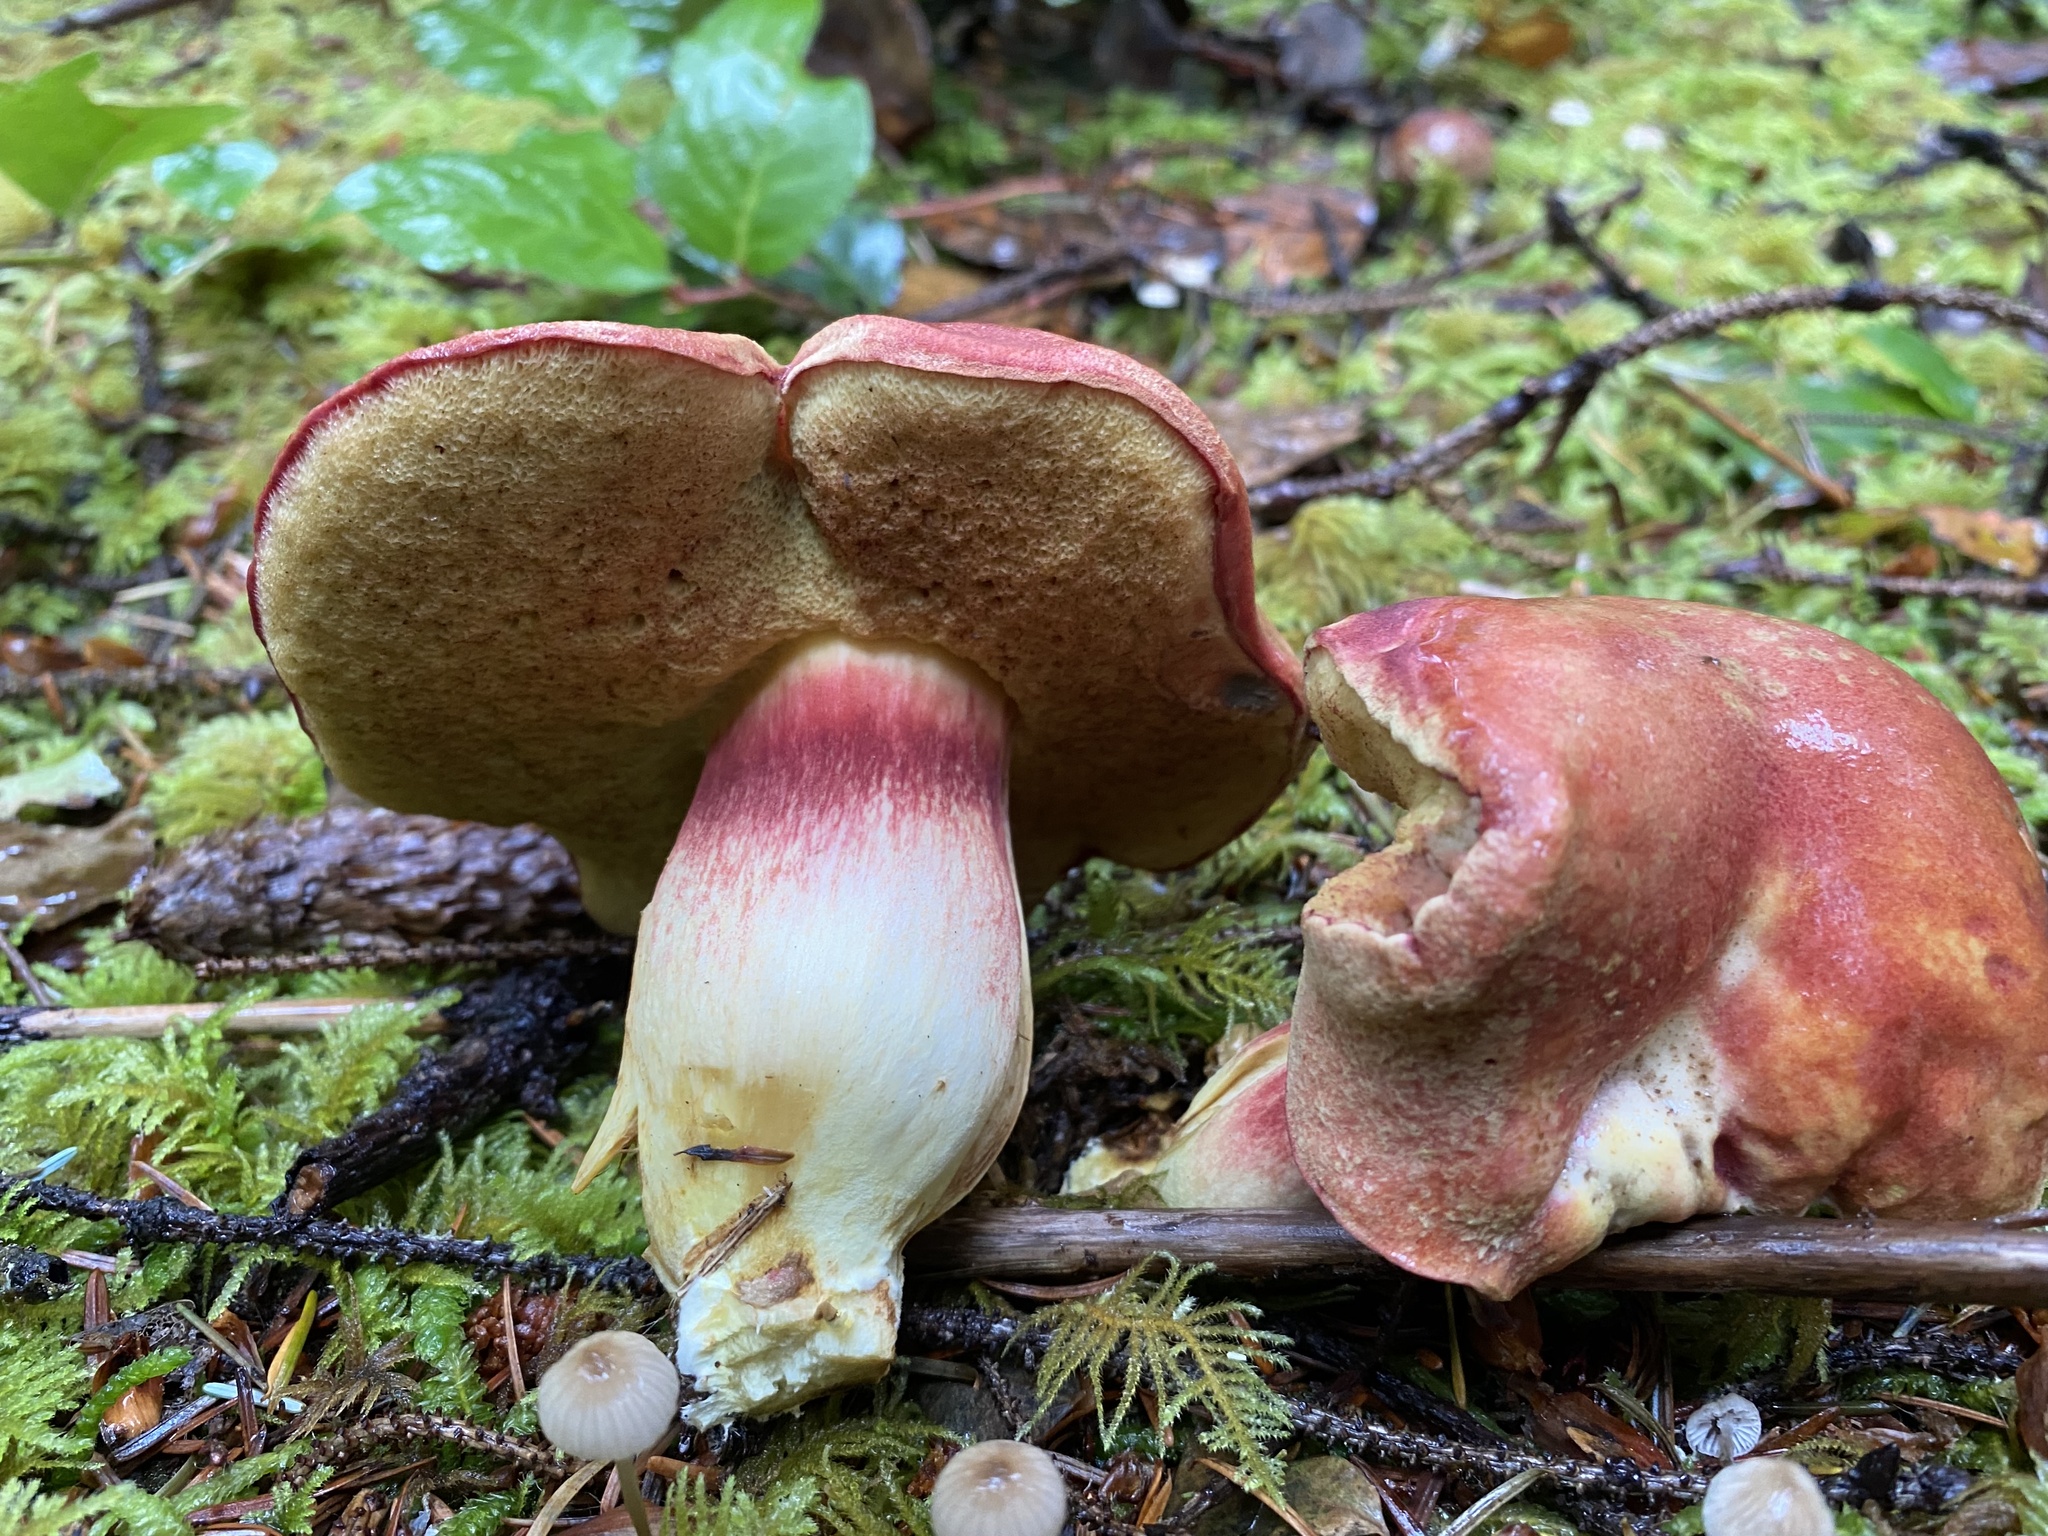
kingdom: Fungi
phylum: Basidiomycota
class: Agaricomycetes
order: Boletales
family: Boletaceae
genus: Boletus
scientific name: Boletus smithii
